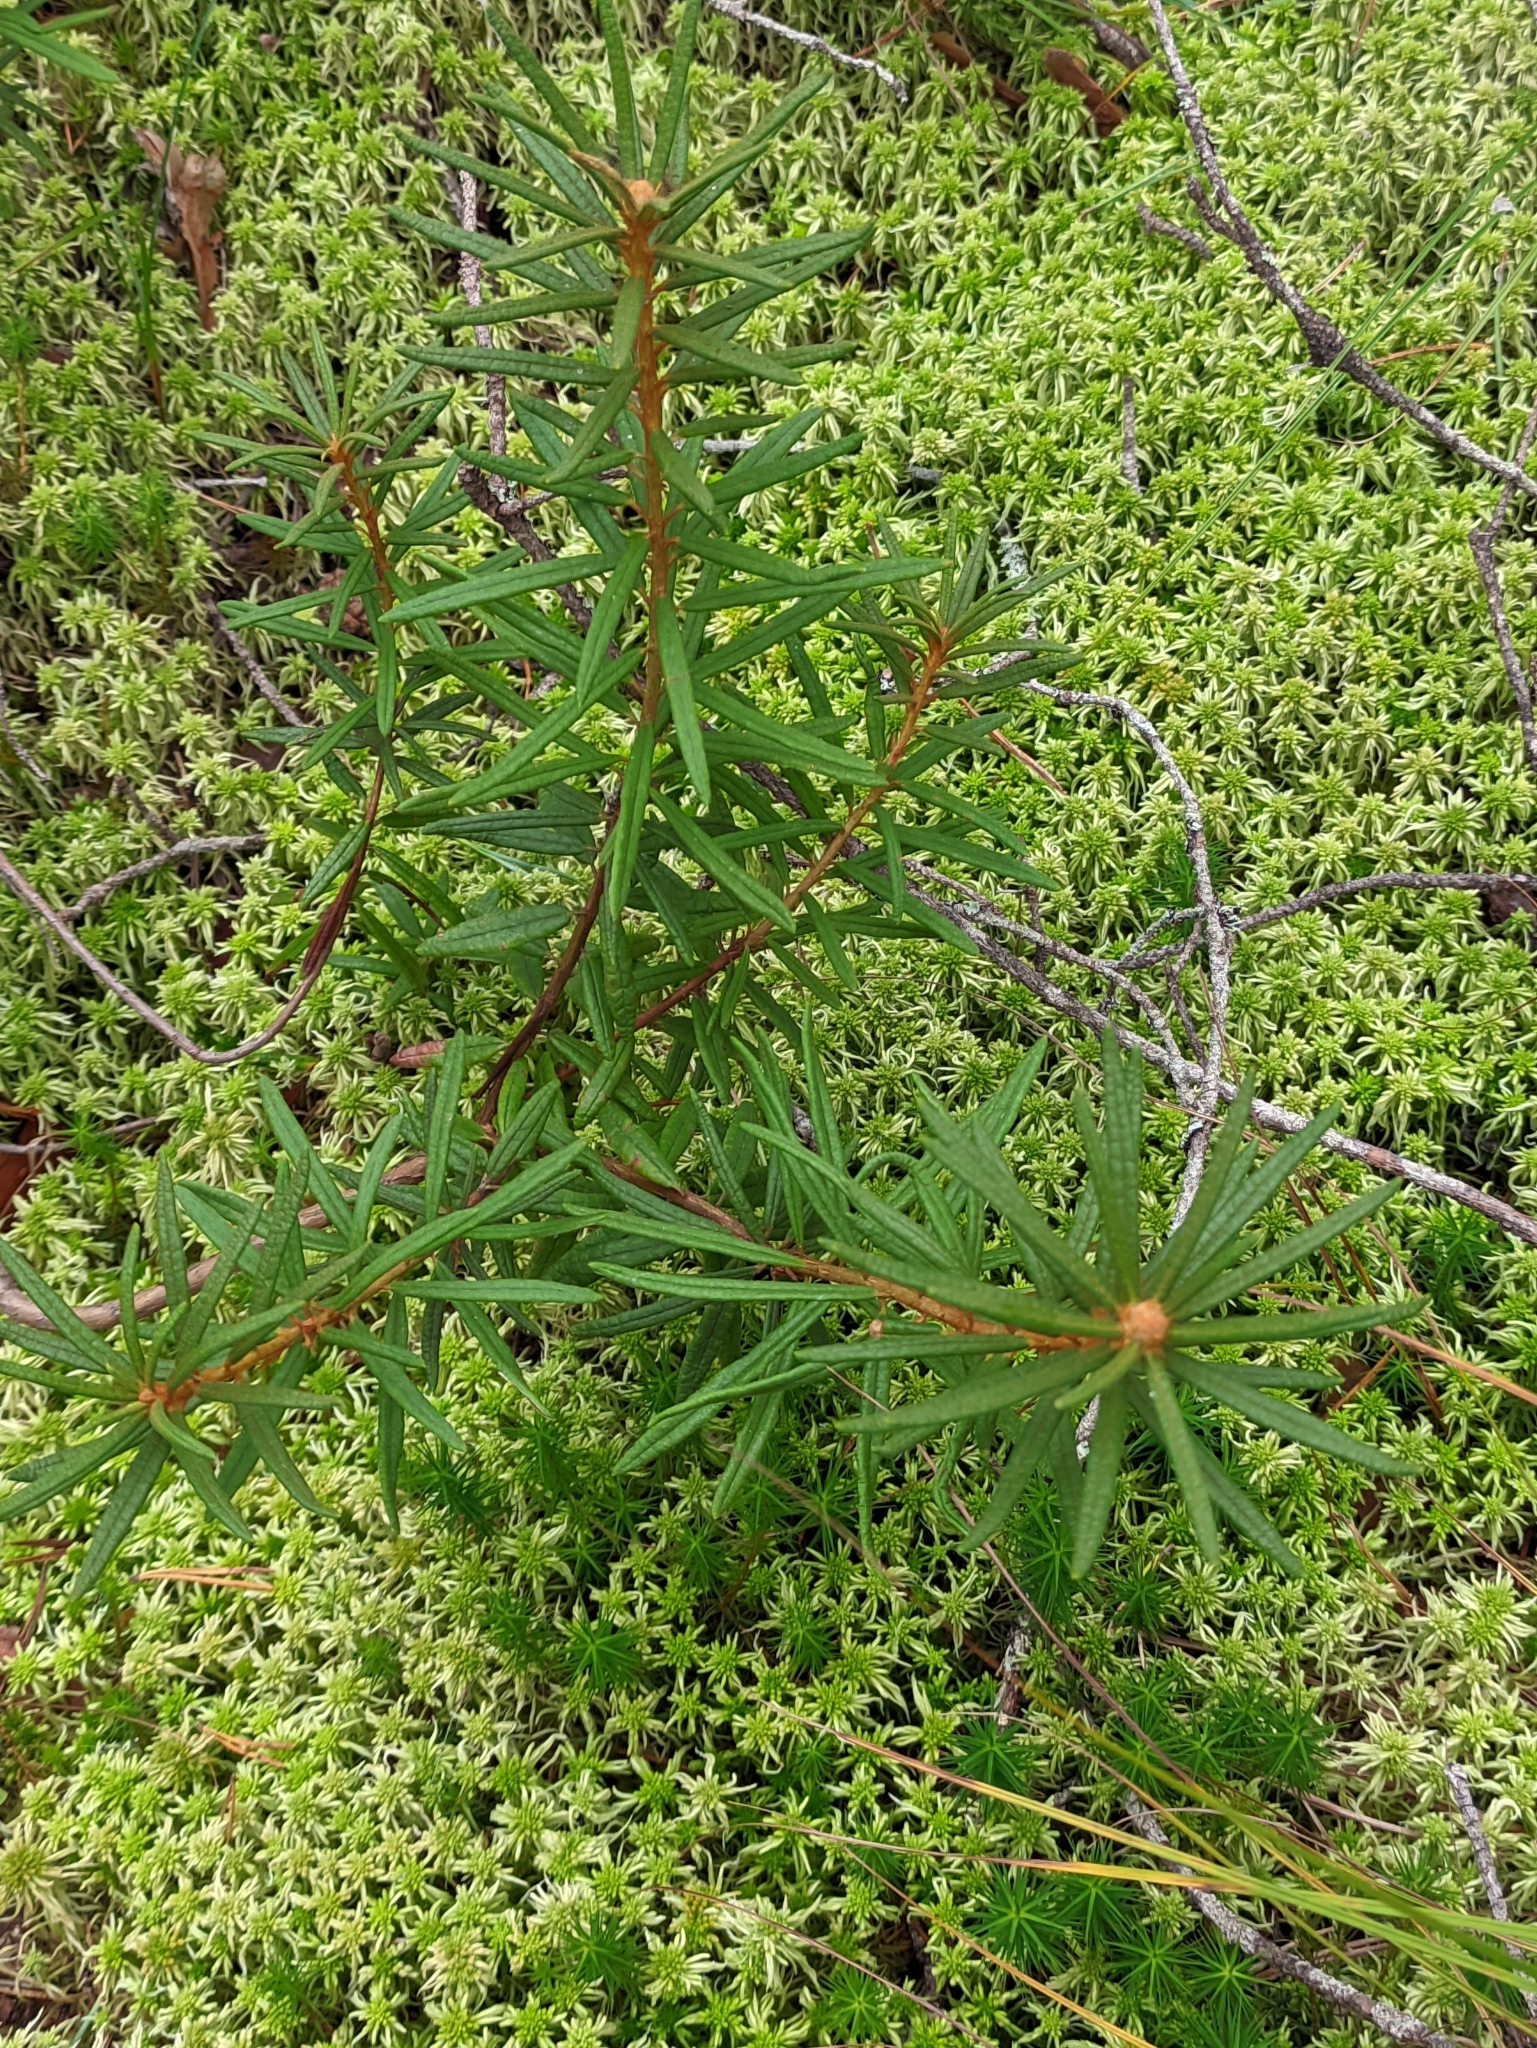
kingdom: Plantae
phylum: Tracheophyta
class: Magnoliopsida
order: Ericales
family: Ericaceae
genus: Rhododendron
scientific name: Rhododendron tomentosum
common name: Marsh labrador tea
